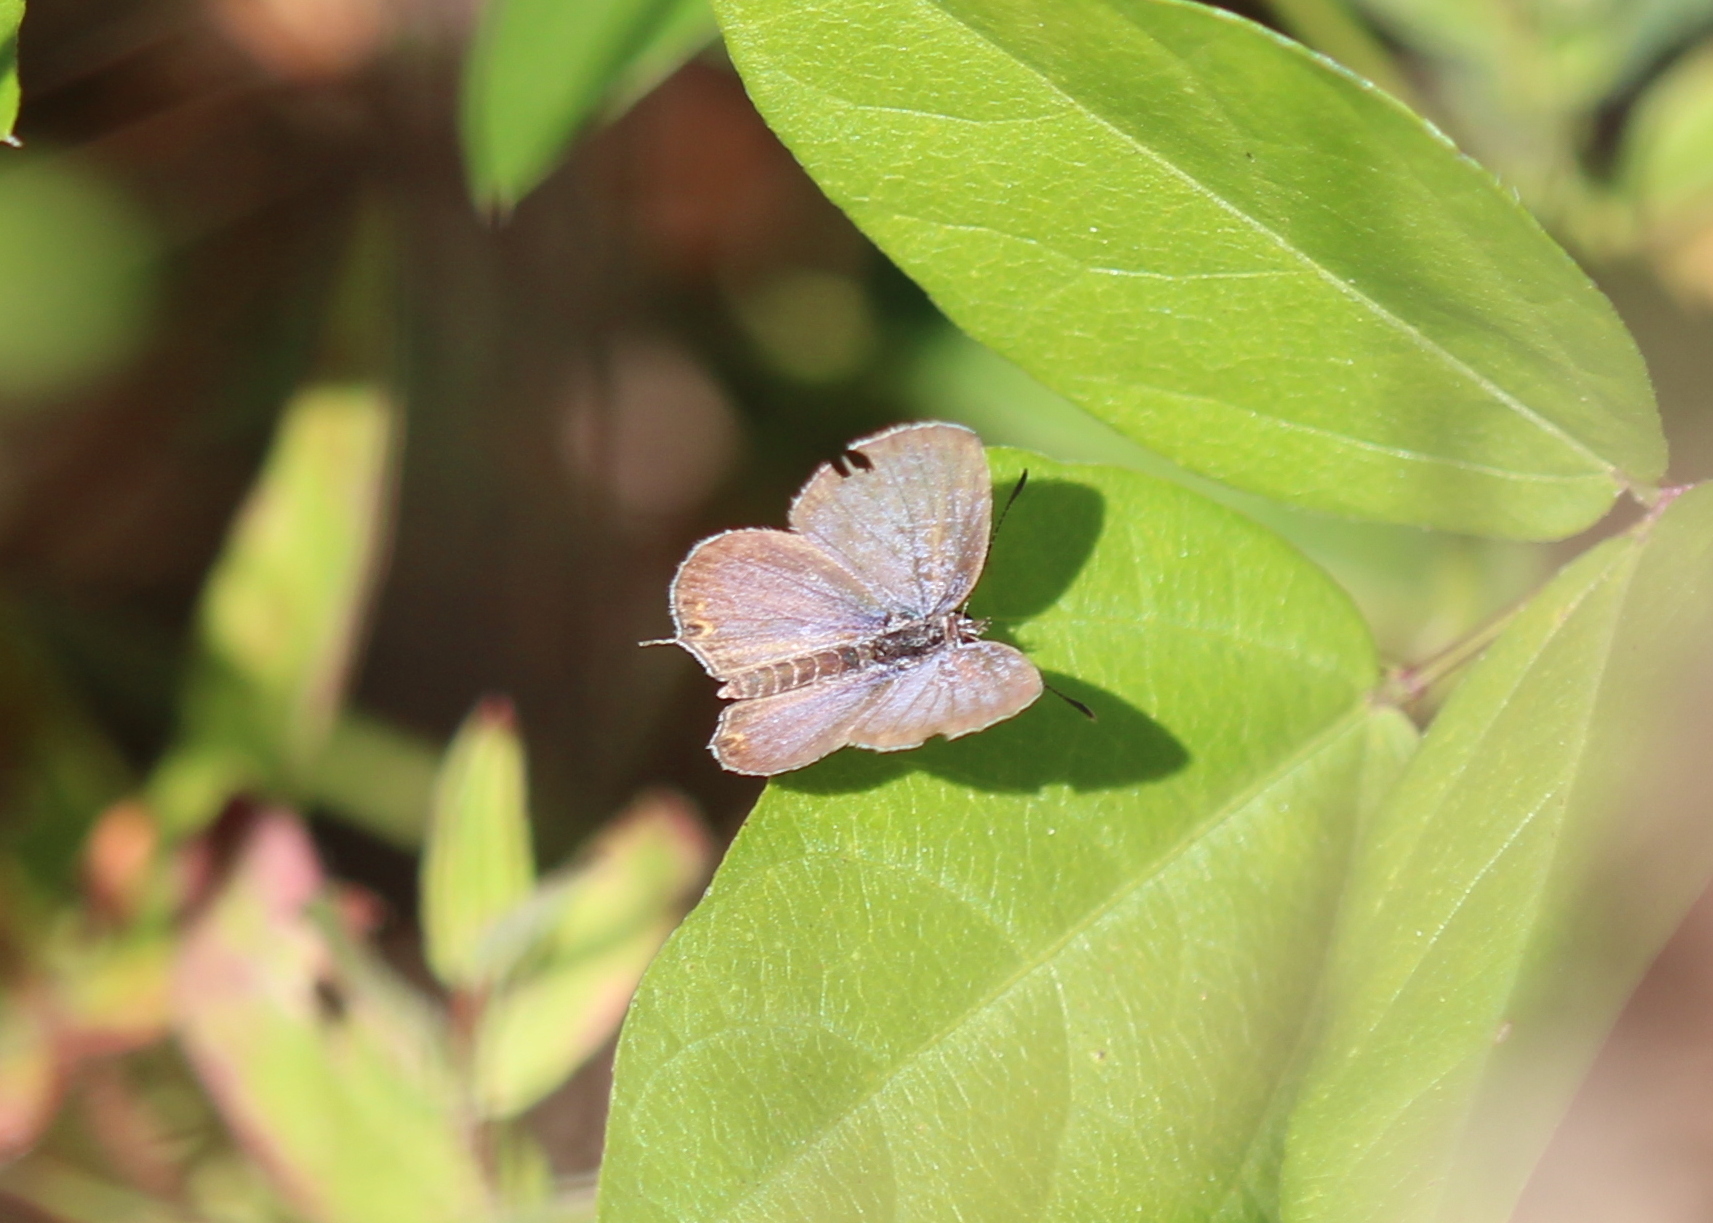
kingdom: Animalia
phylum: Arthropoda
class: Insecta
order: Lepidoptera
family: Lycaenidae
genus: Elkalyce
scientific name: Elkalyce comyntas
